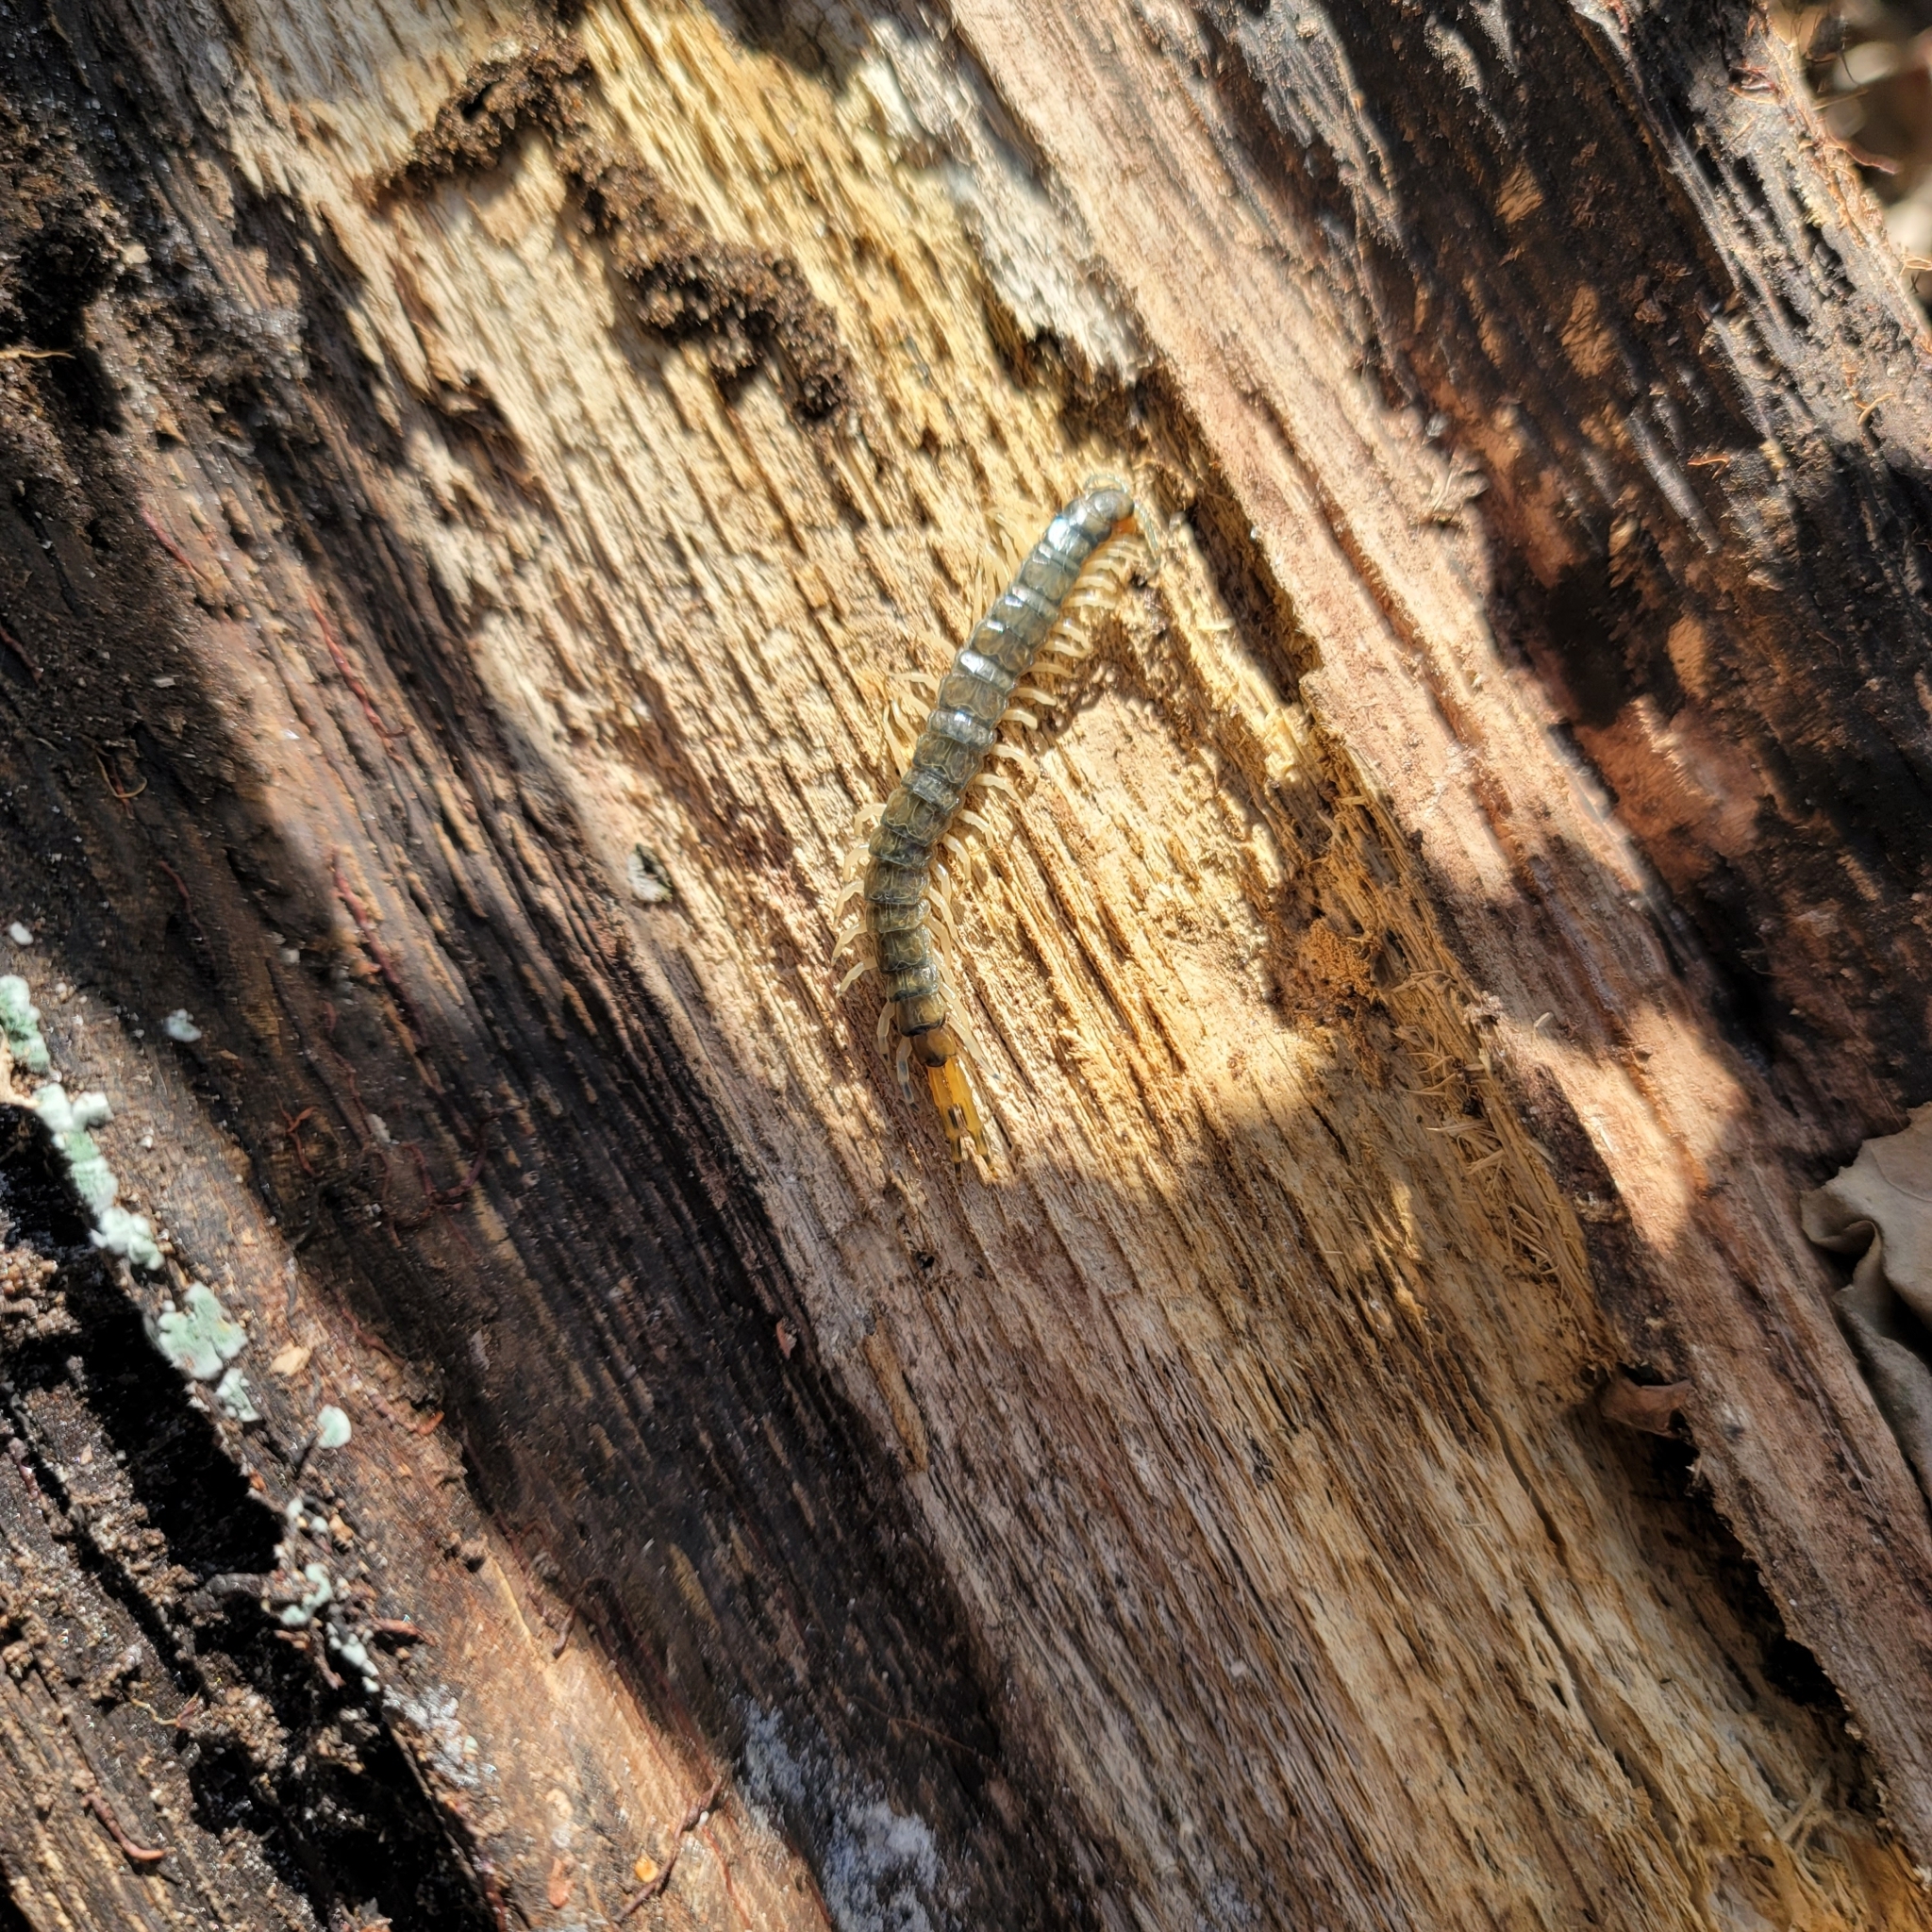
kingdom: Animalia
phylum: Arthropoda
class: Chilopoda
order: Scolopendromorpha
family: Scolopendridae
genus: Hemiscolopendra
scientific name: Hemiscolopendra marginata
